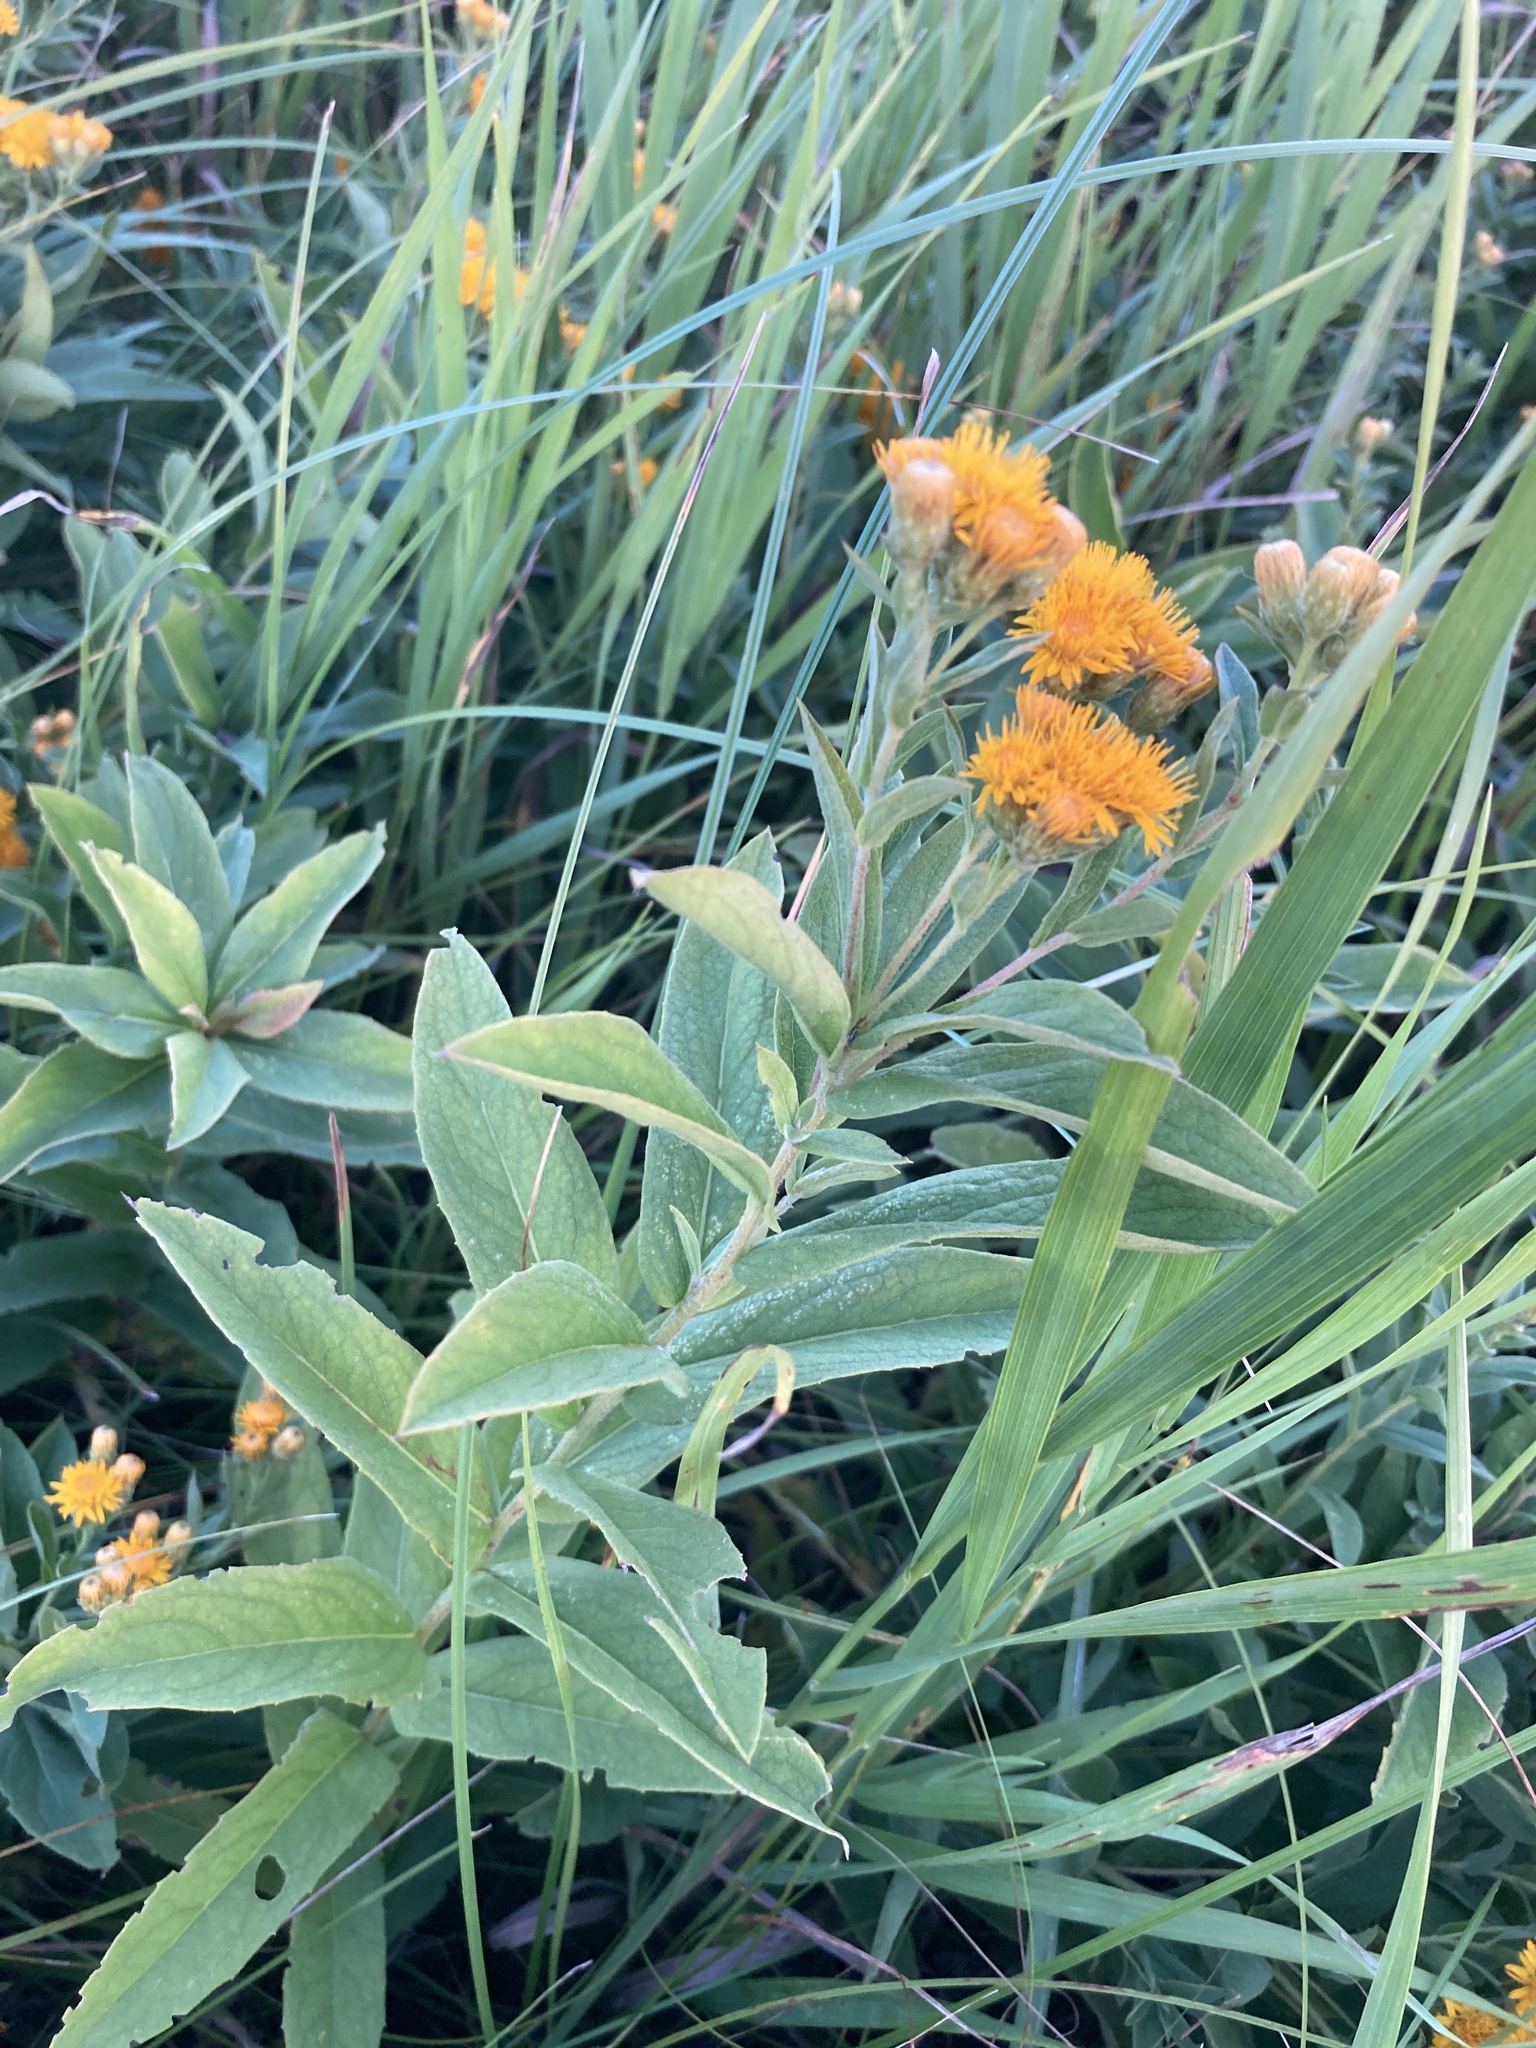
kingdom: Plantae
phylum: Tracheophyta
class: Magnoliopsida
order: Asterales
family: Asteraceae
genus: Pentanema
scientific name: Pentanema germanicum
